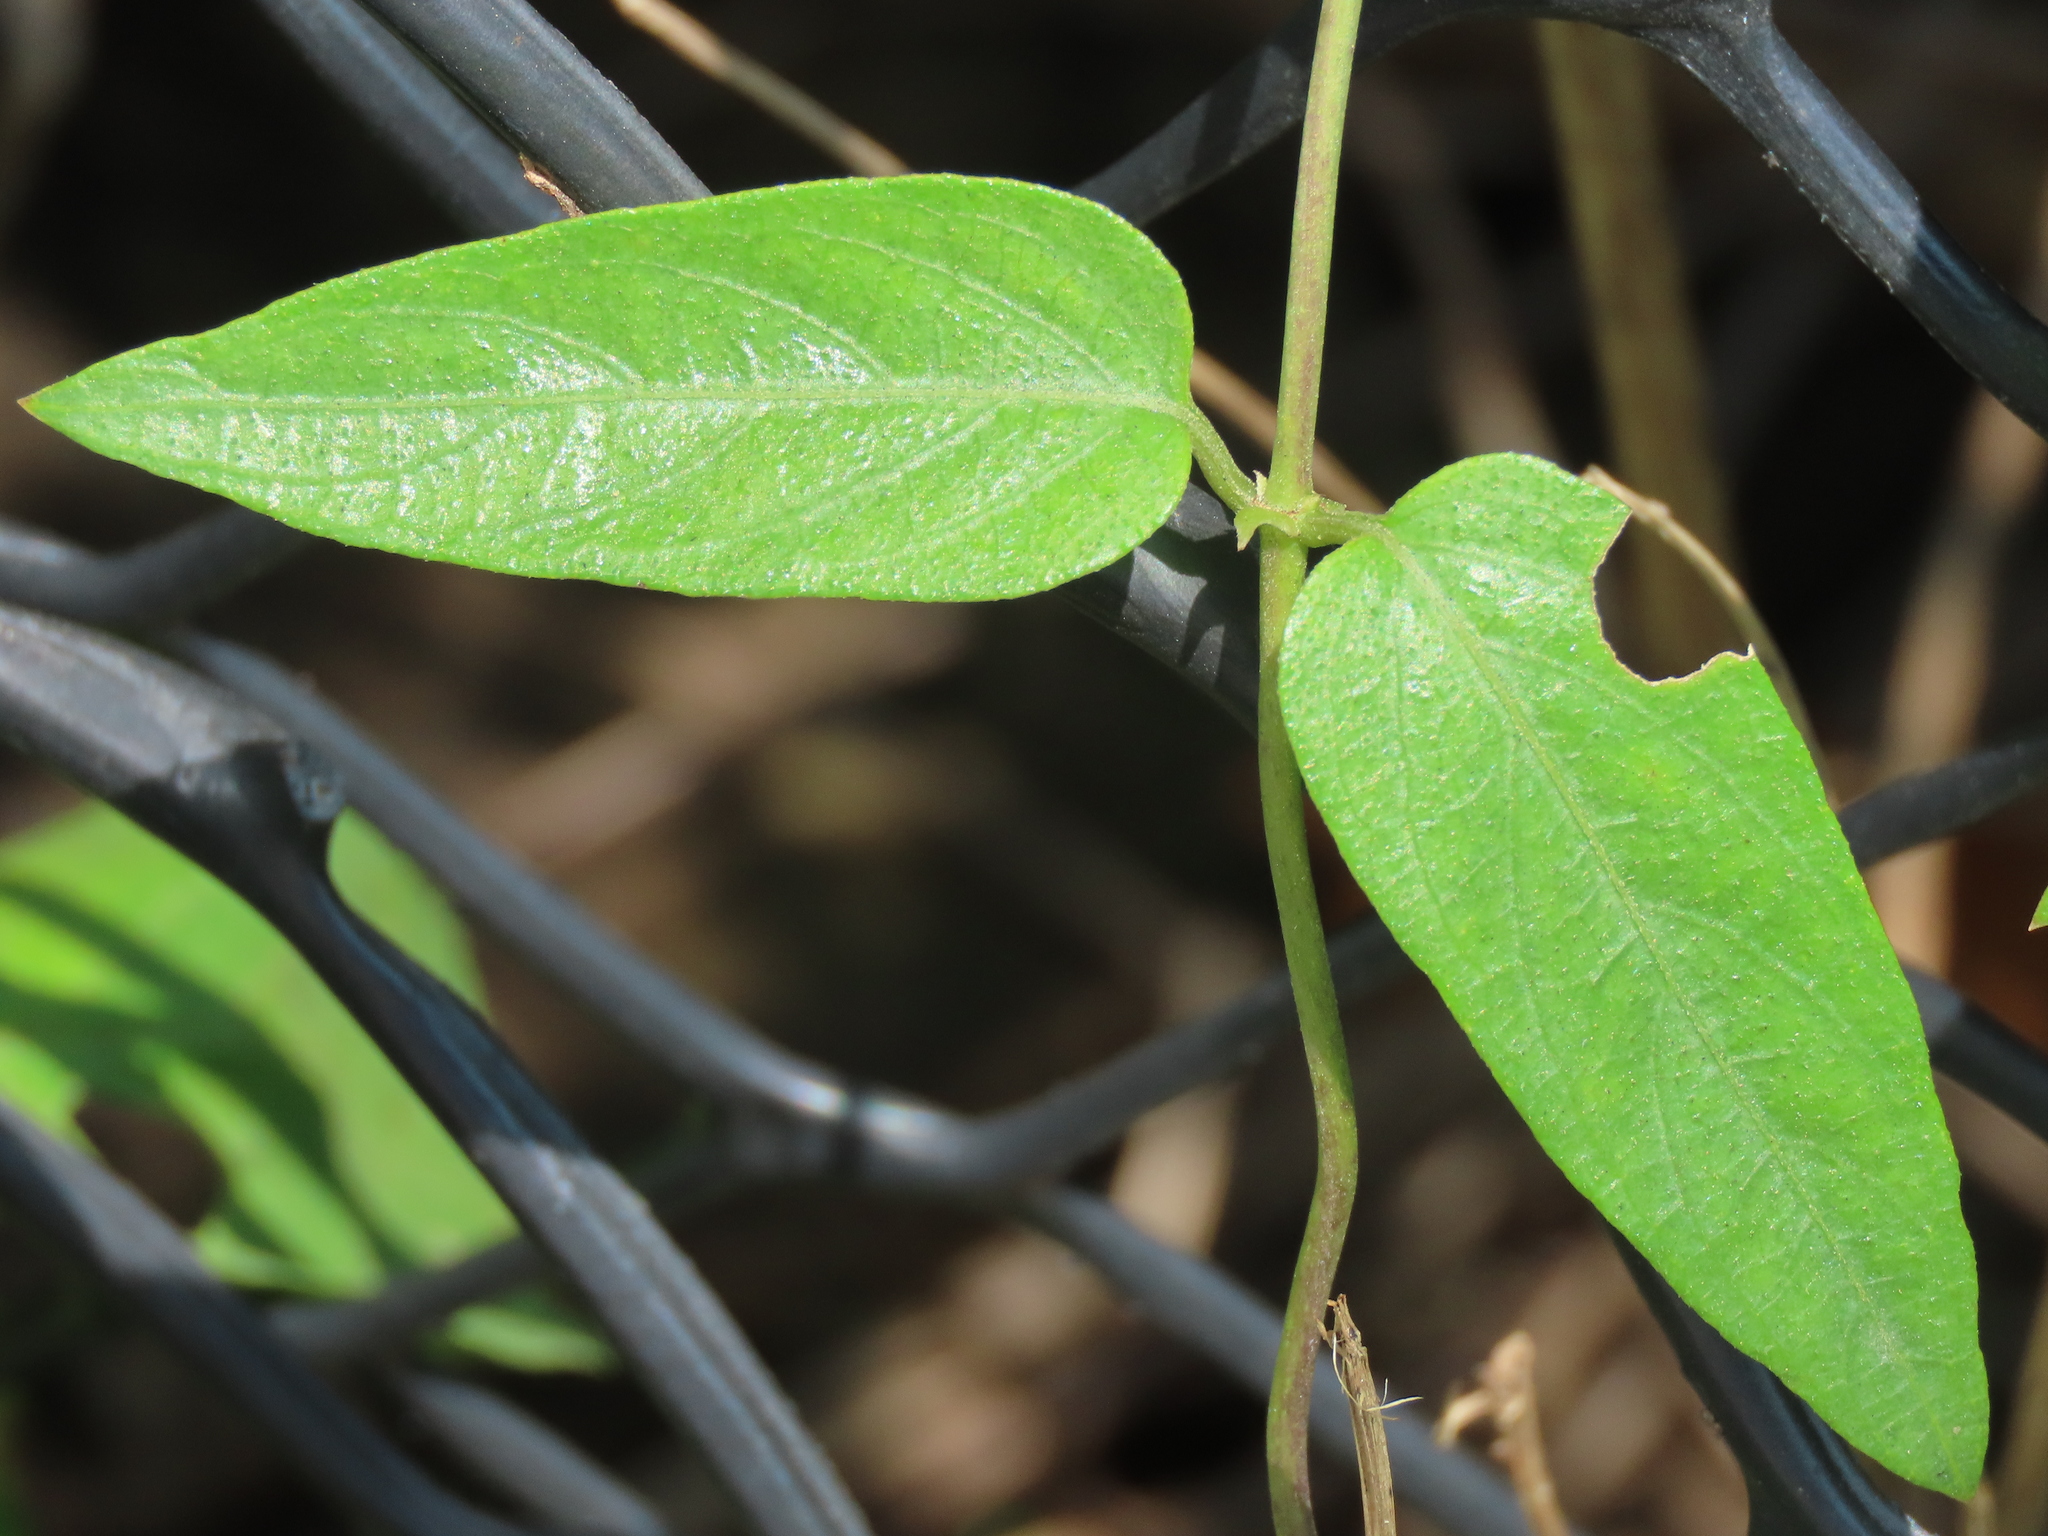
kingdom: Plantae
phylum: Tracheophyta
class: Magnoliopsida
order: Gentianales
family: Rubiaceae
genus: Paederia
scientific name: Paederia foetida
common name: Stinkvine
